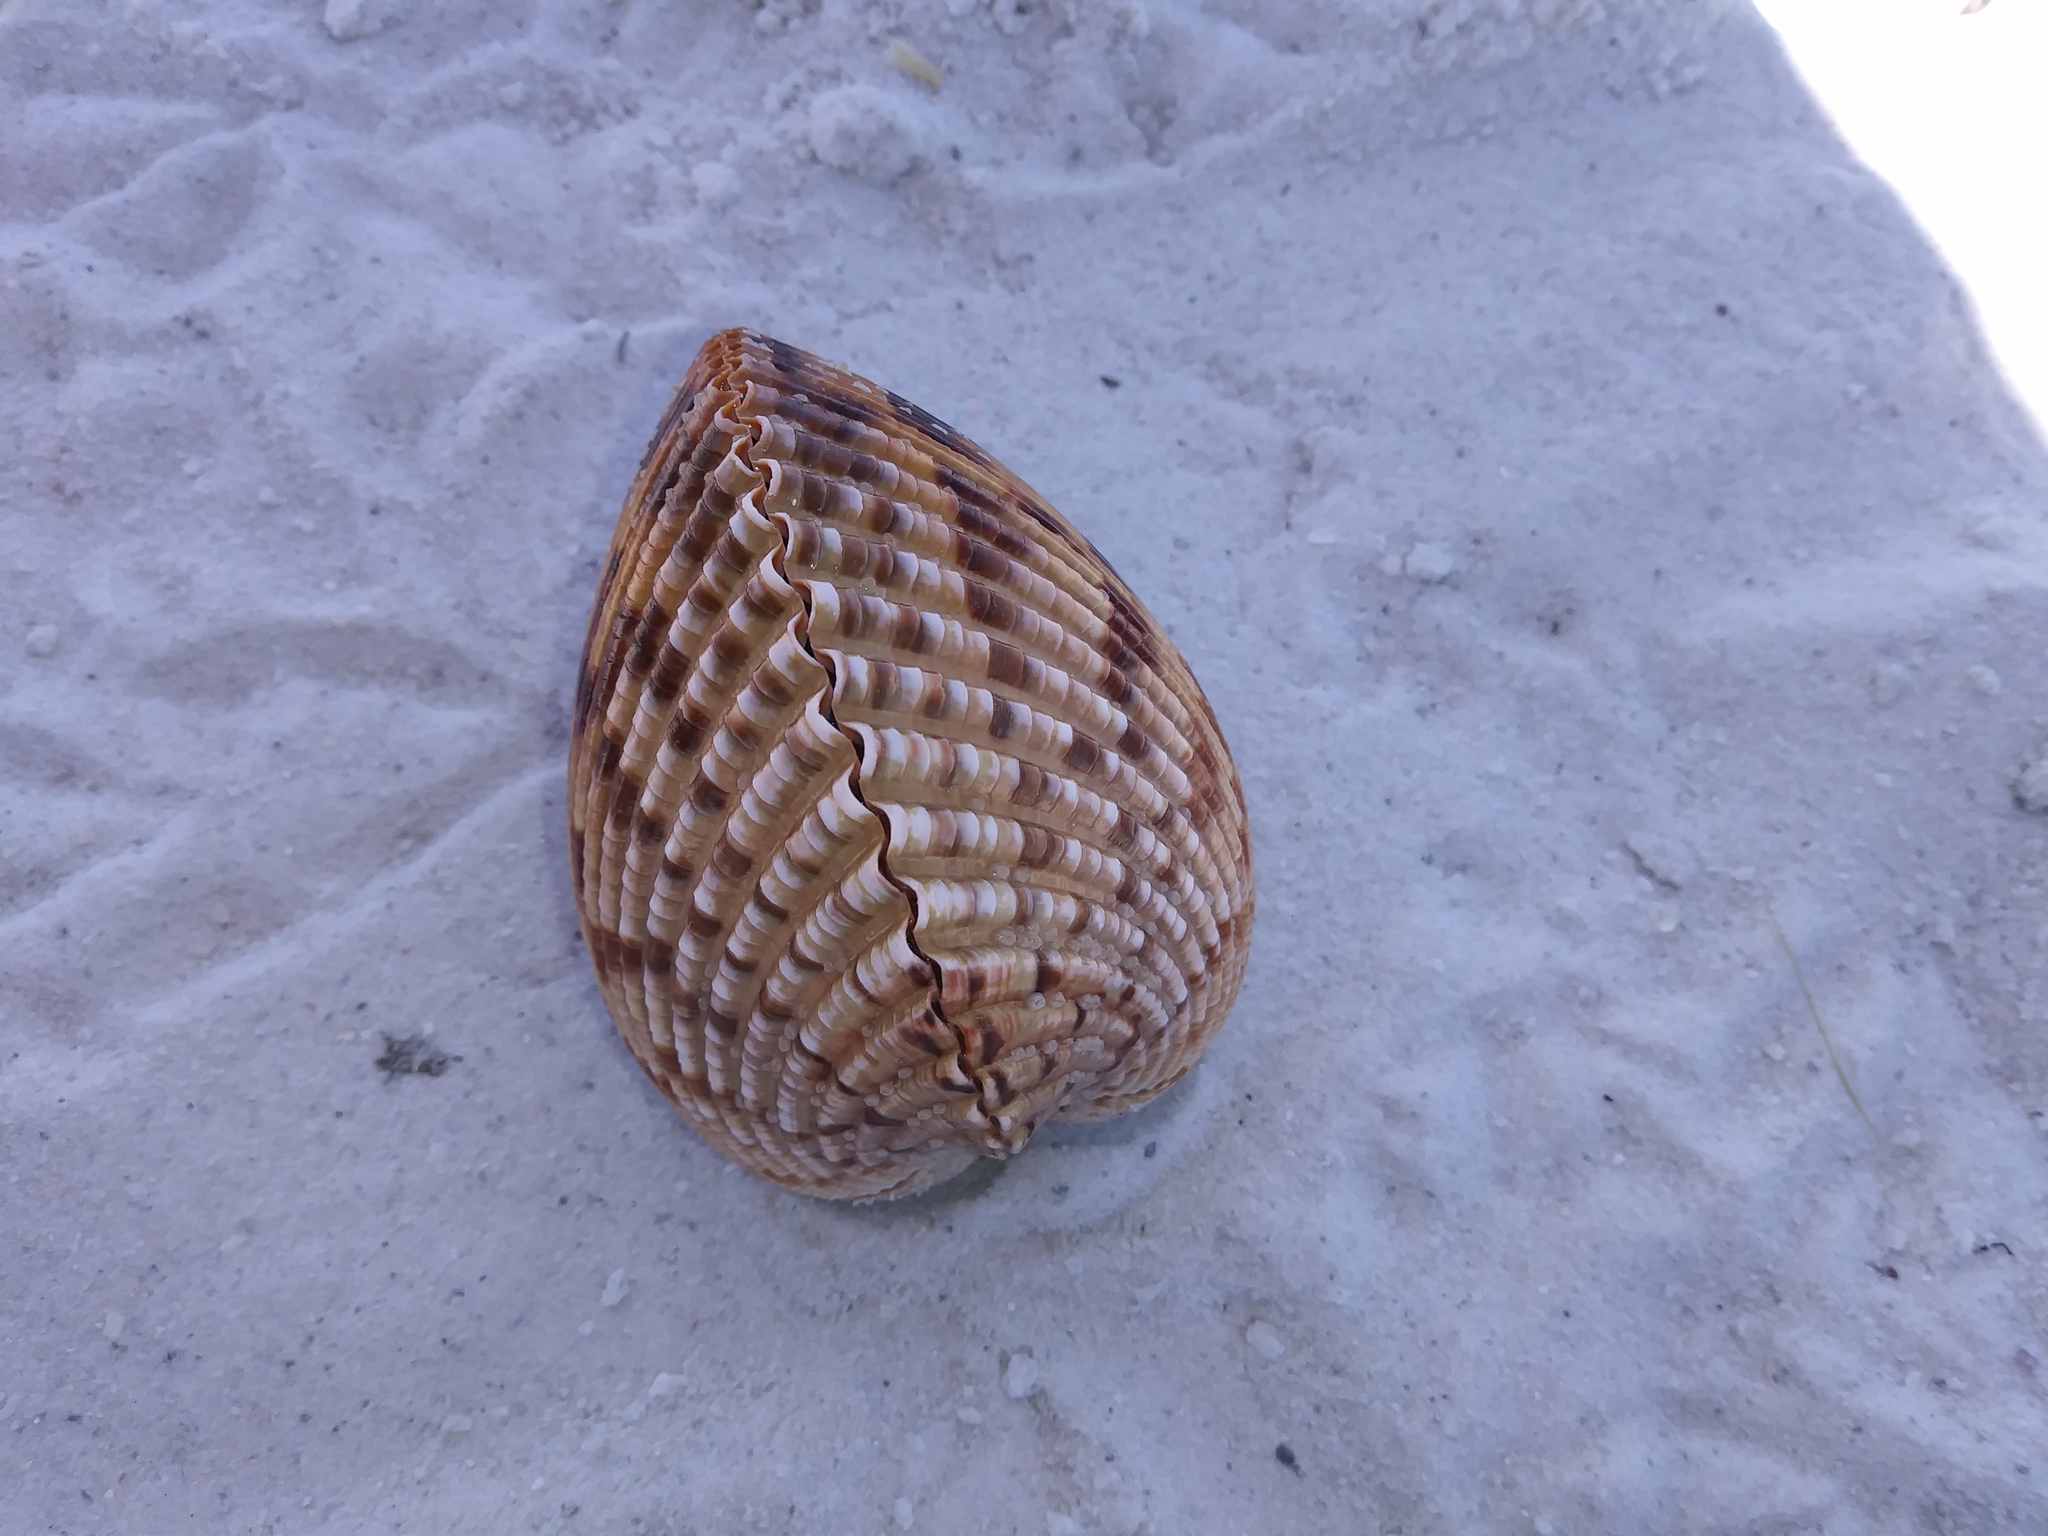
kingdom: Animalia
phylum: Mollusca
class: Bivalvia
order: Cardiida
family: Cardiidae
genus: Dinocardium
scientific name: Dinocardium robustum
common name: Atlantic giant cockle
